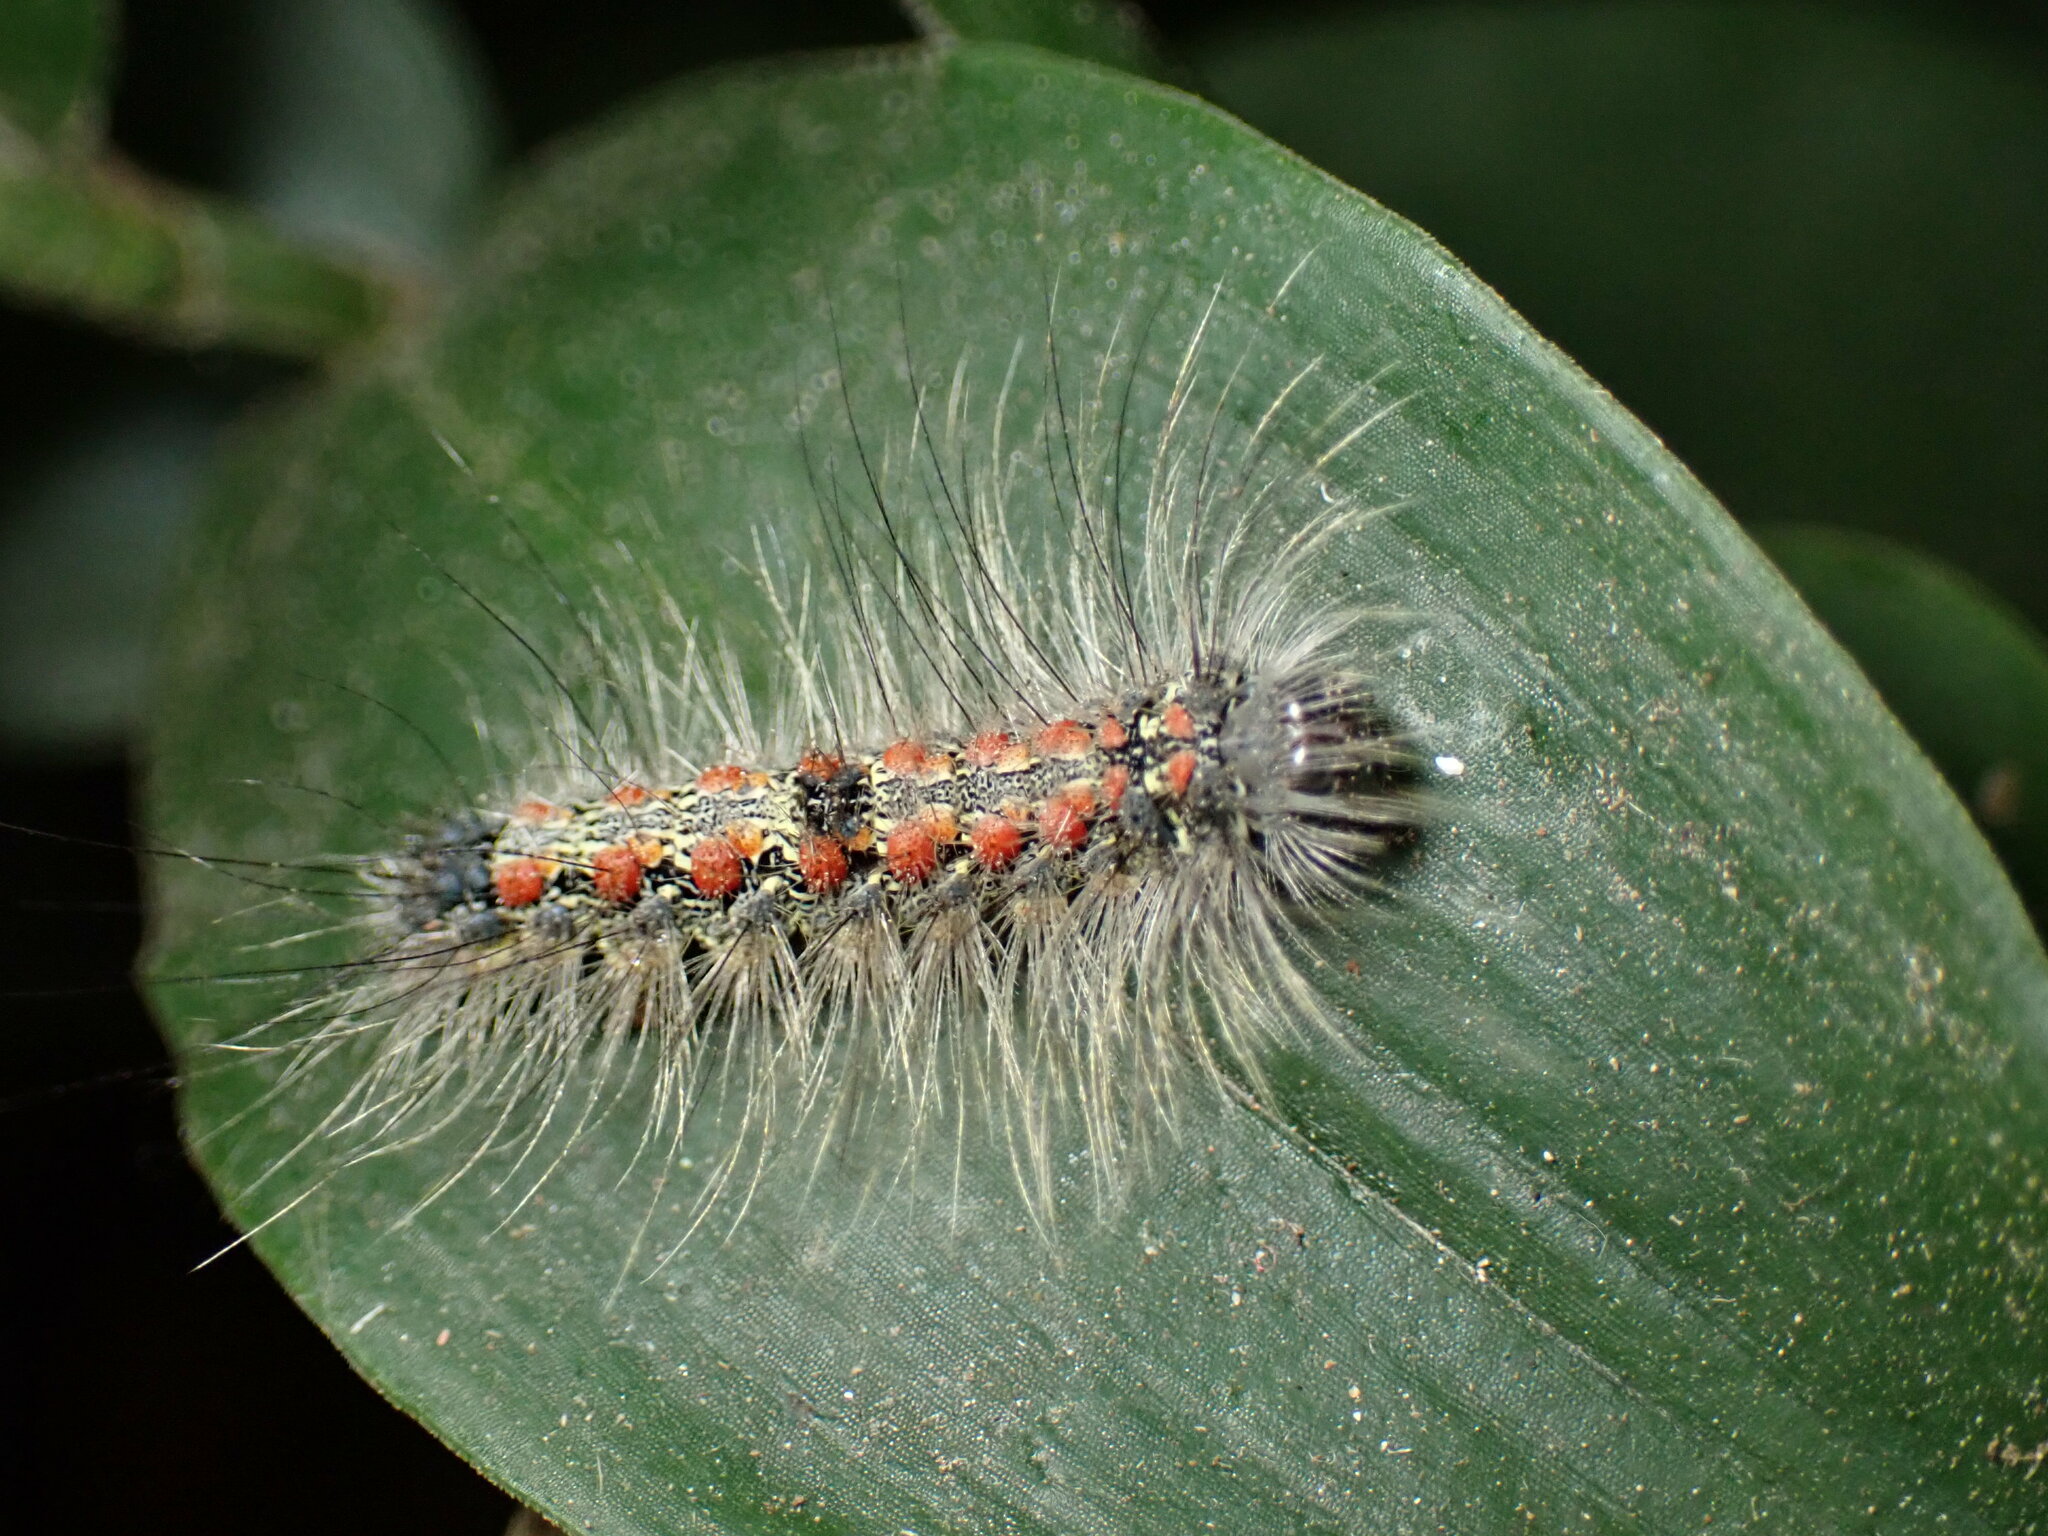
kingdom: Animalia
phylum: Arthropoda
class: Insecta
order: Lepidoptera
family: Erebidae
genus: Lithosia
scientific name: Lithosia quadra
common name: Four-spotted footman
